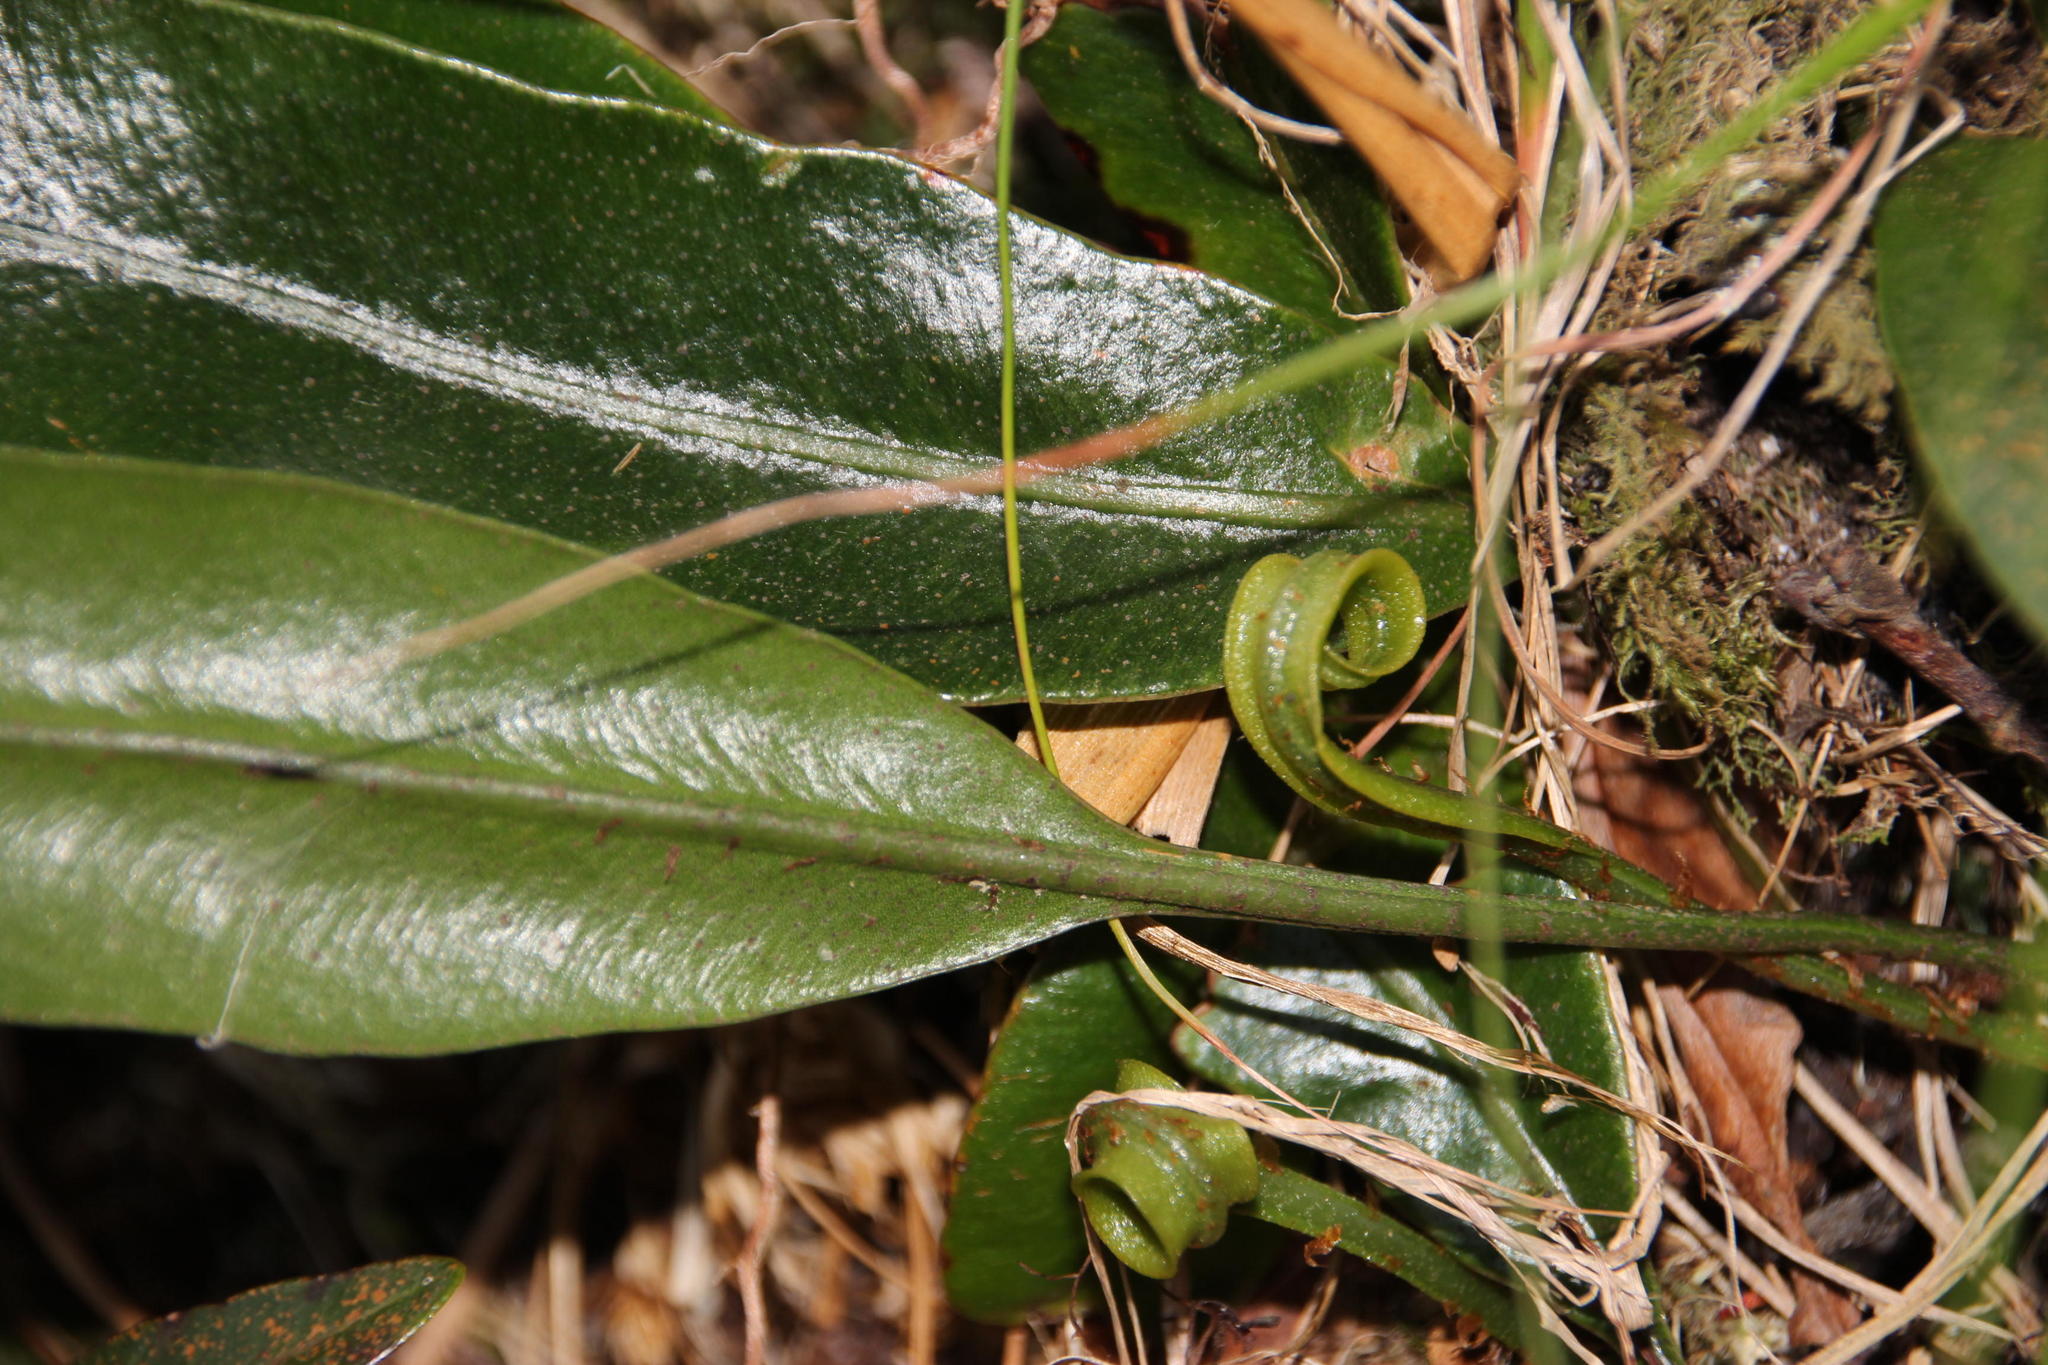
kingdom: Plantae
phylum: Tracheophyta
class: Polypodiopsida
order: Polypodiales
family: Dryopteridaceae
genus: Elaphoglossum
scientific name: Elaphoglossum angustatum
